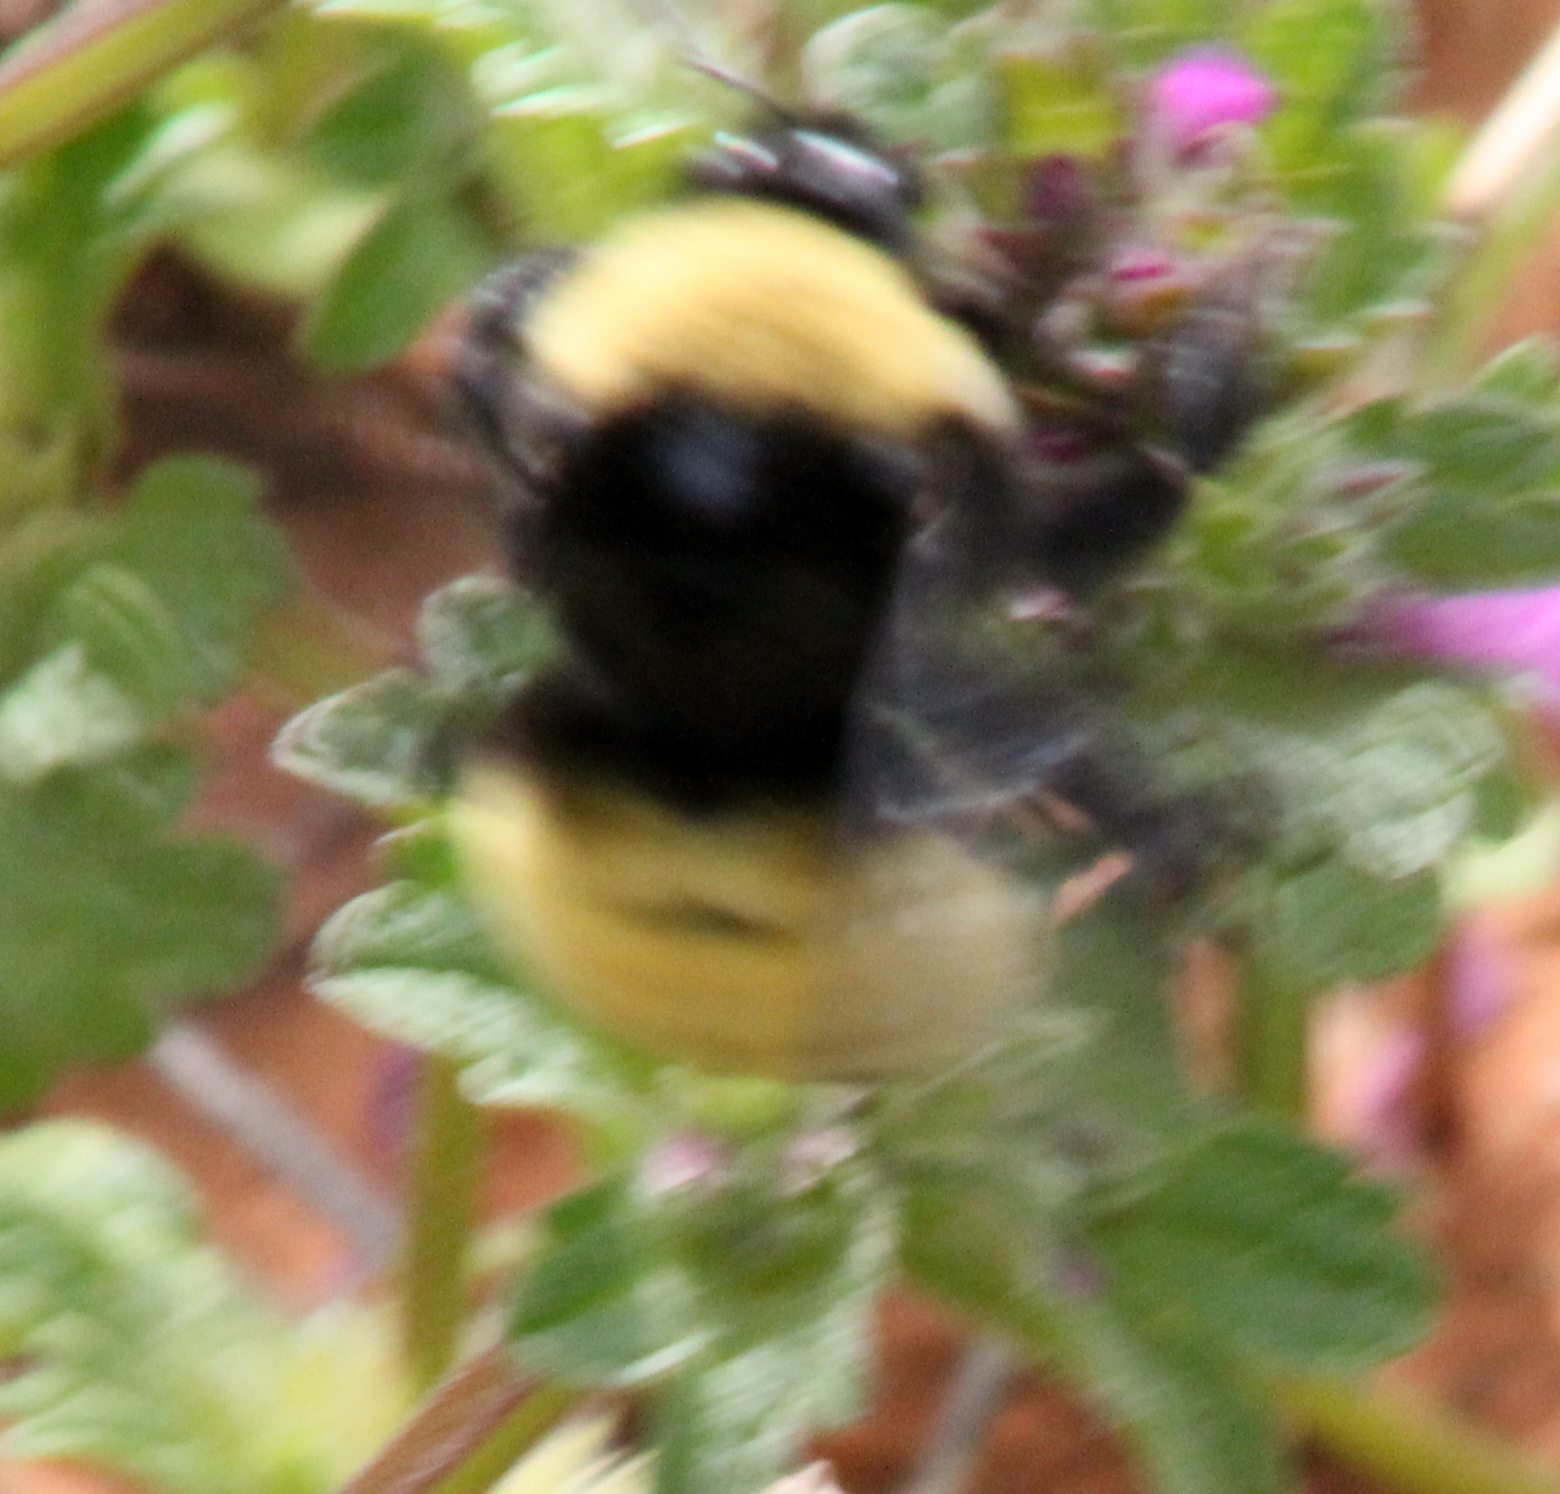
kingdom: Animalia
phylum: Arthropoda
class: Insecta
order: Hymenoptera
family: Apidae
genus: Bombus
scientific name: Bombus pensylvanicus
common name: Bumble bee
